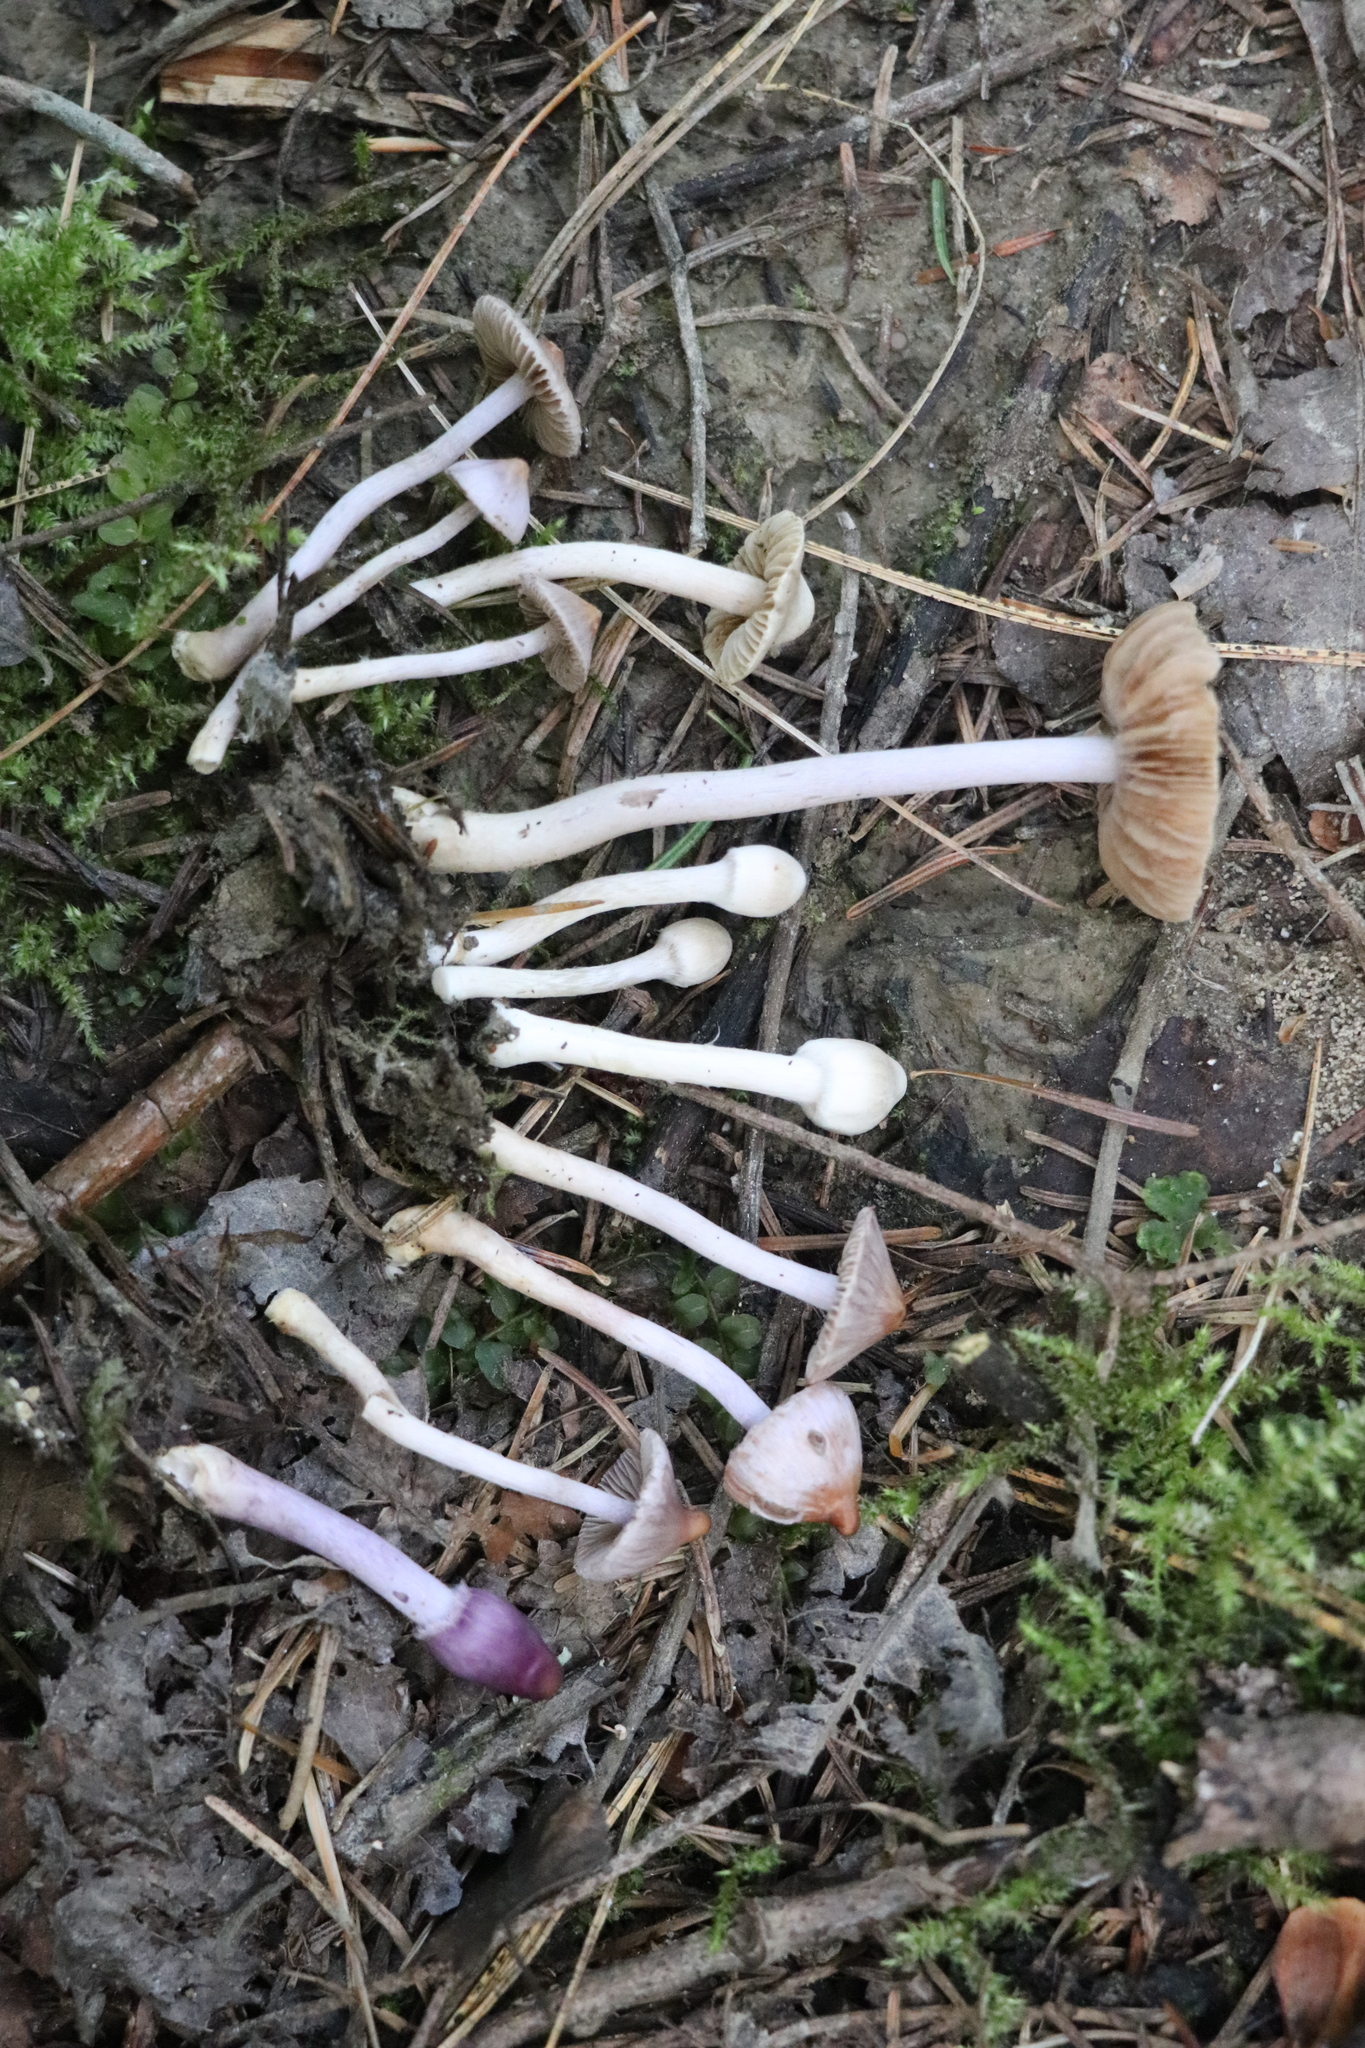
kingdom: Fungi
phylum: Basidiomycota
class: Agaricomycetes
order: Agaricales
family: Inocybaceae
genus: Inocybe
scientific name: Inocybe geophylla
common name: White fibrecap
